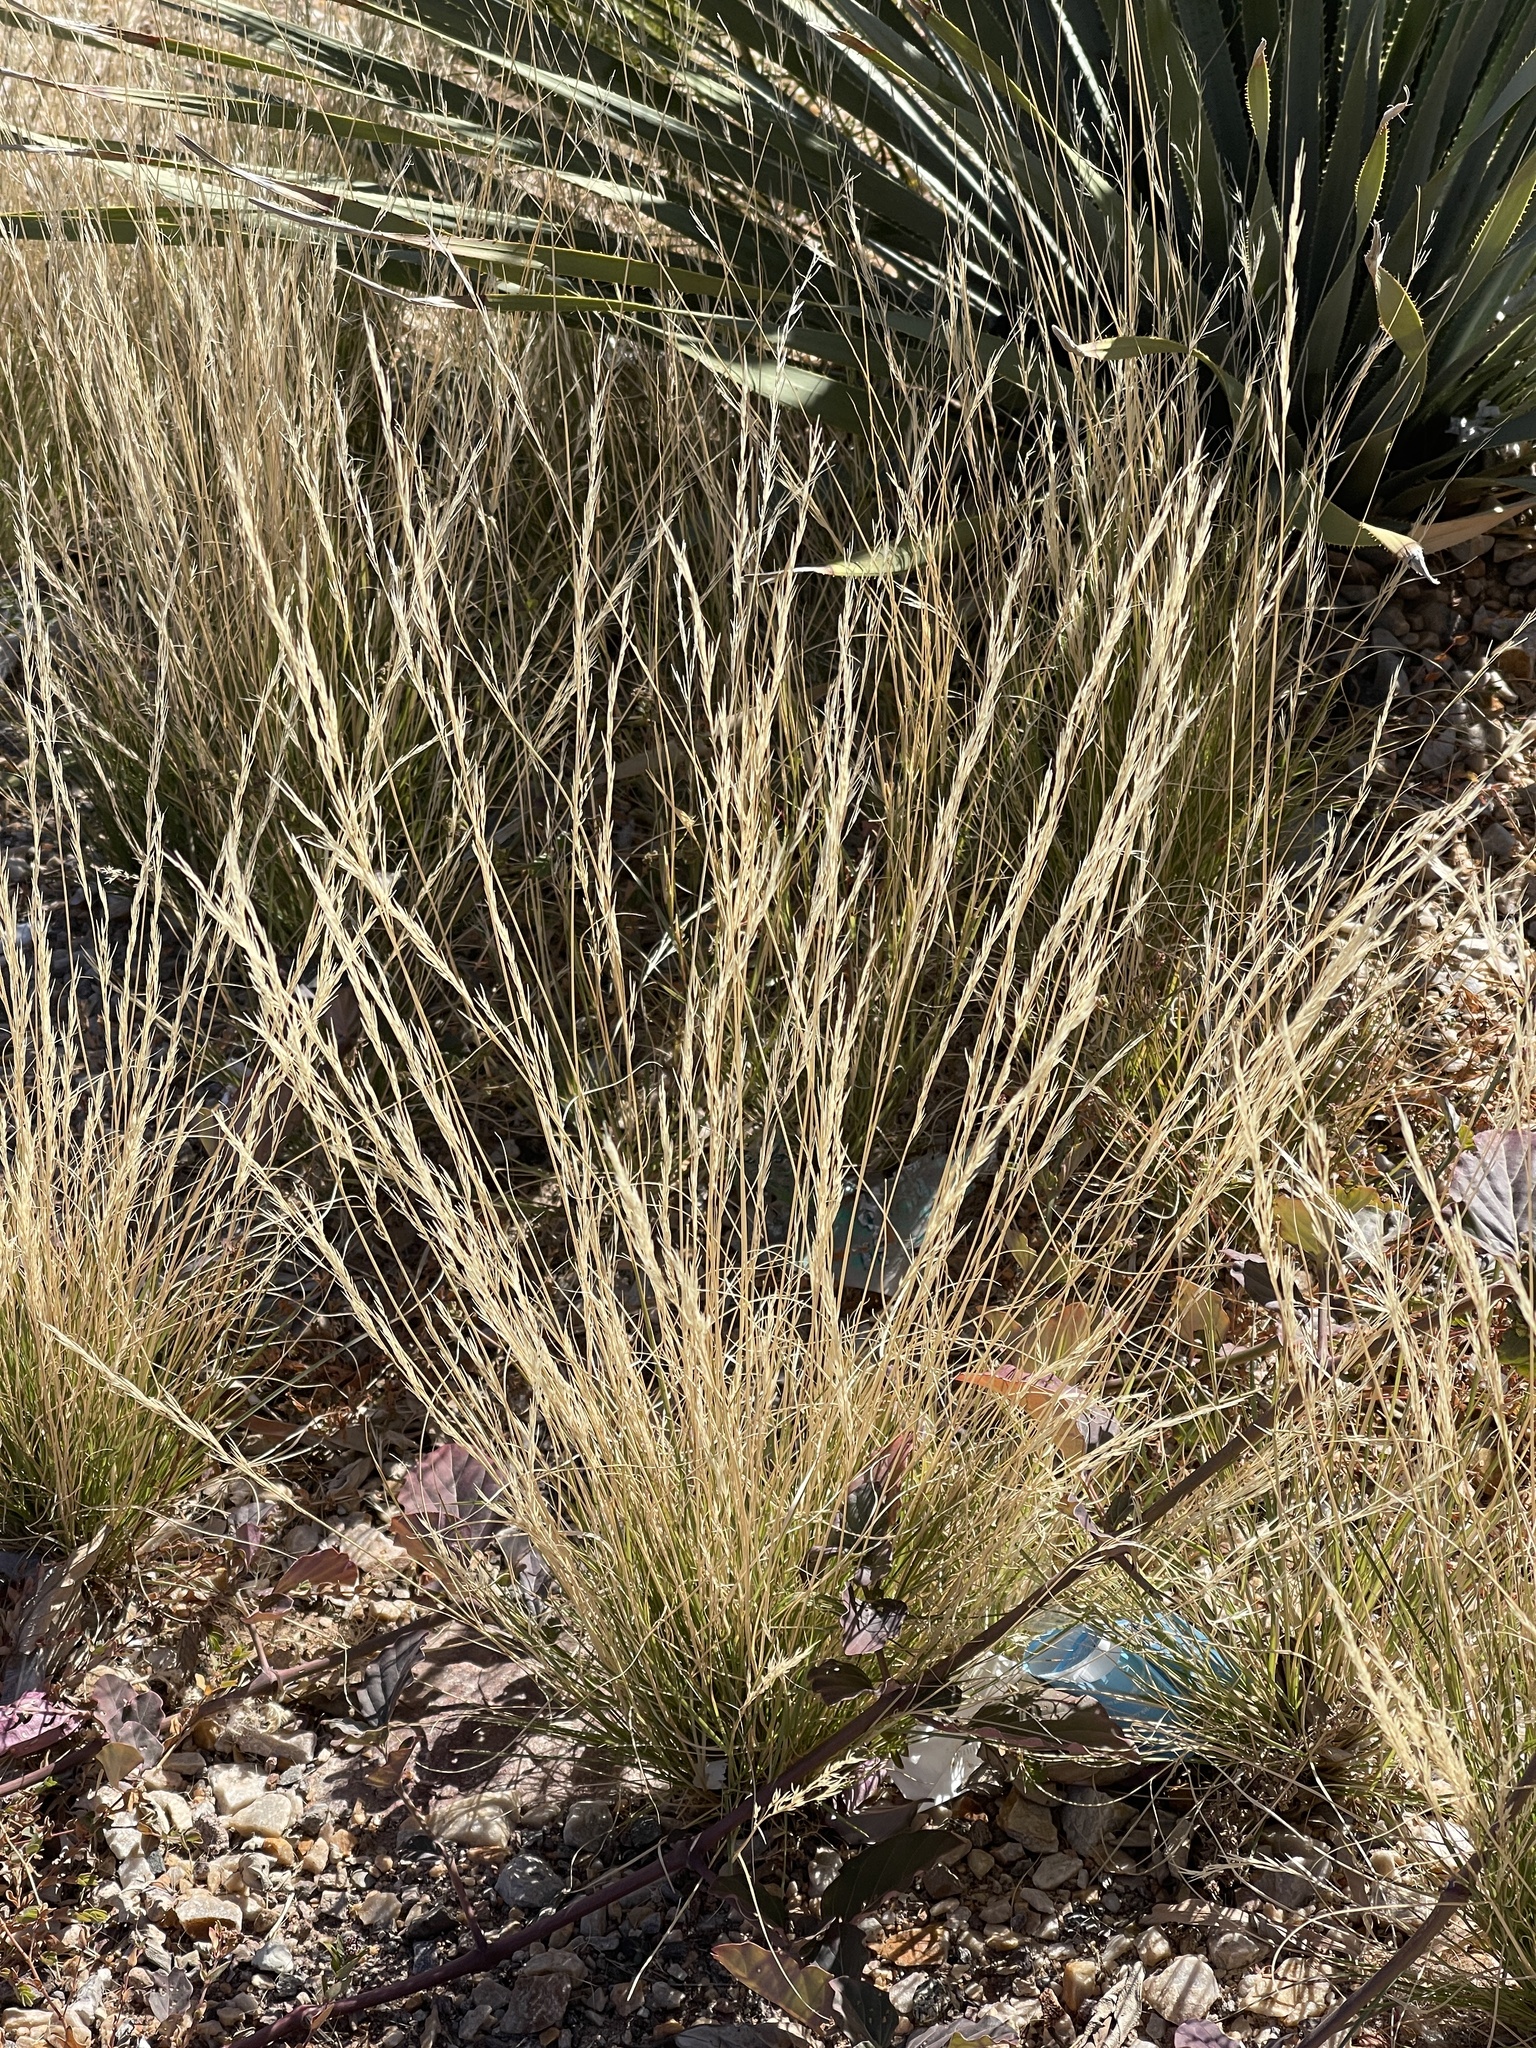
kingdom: Plantae
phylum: Tracheophyta
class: Liliopsida
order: Poales
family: Poaceae
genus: Tridentopsis
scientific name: Tridentopsis mutica
